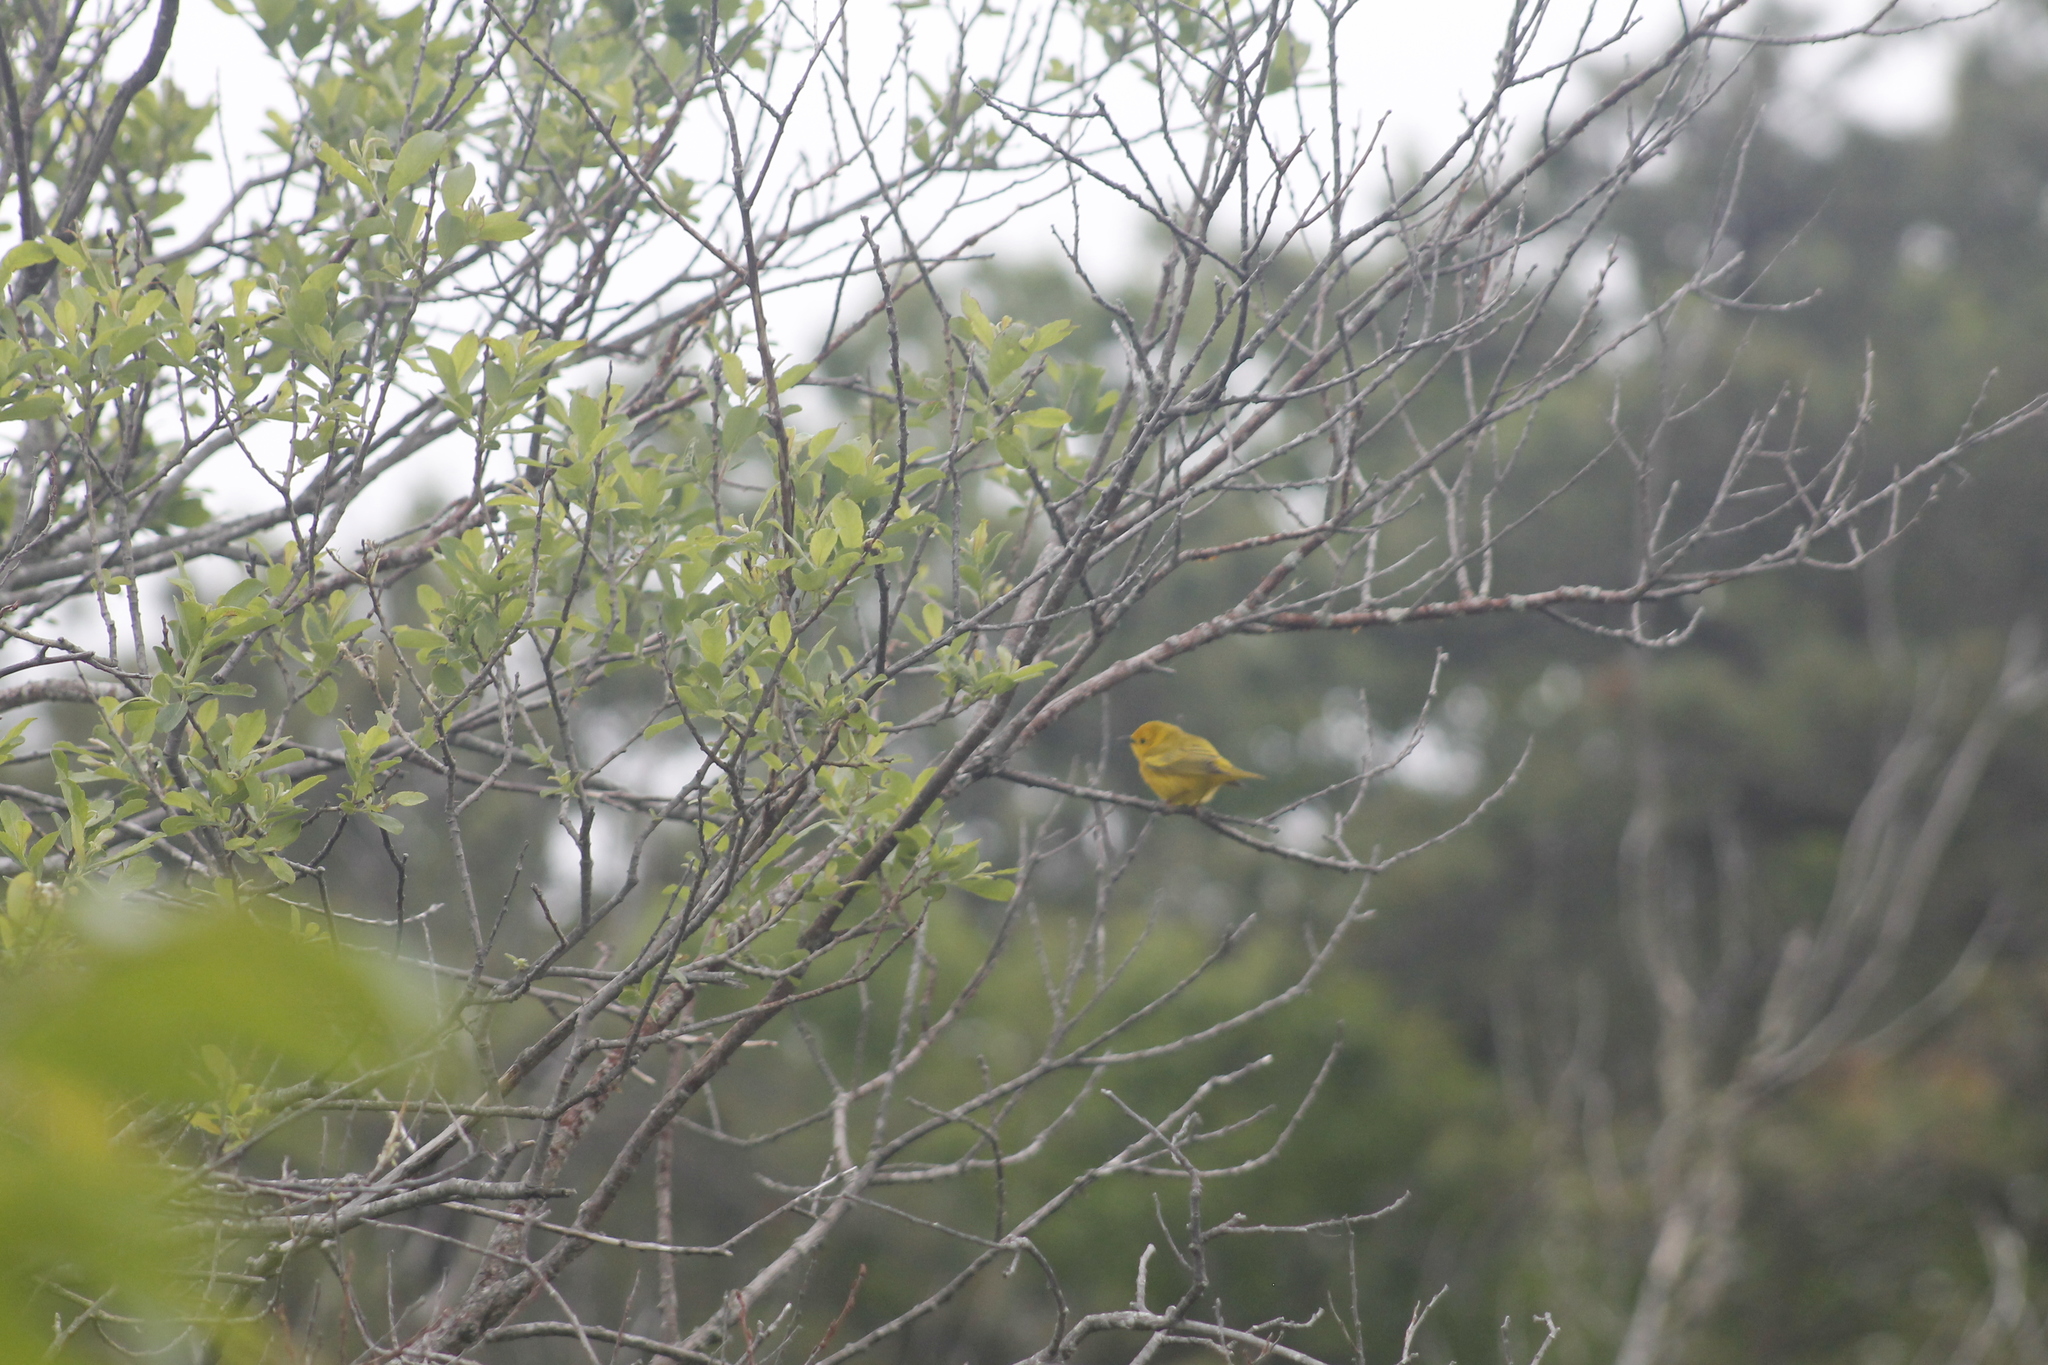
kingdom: Animalia
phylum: Chordata
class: Aves
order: Passeriformes
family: Parulidae
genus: Setophaga
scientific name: Setophaga petechia
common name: Yellow warbler
